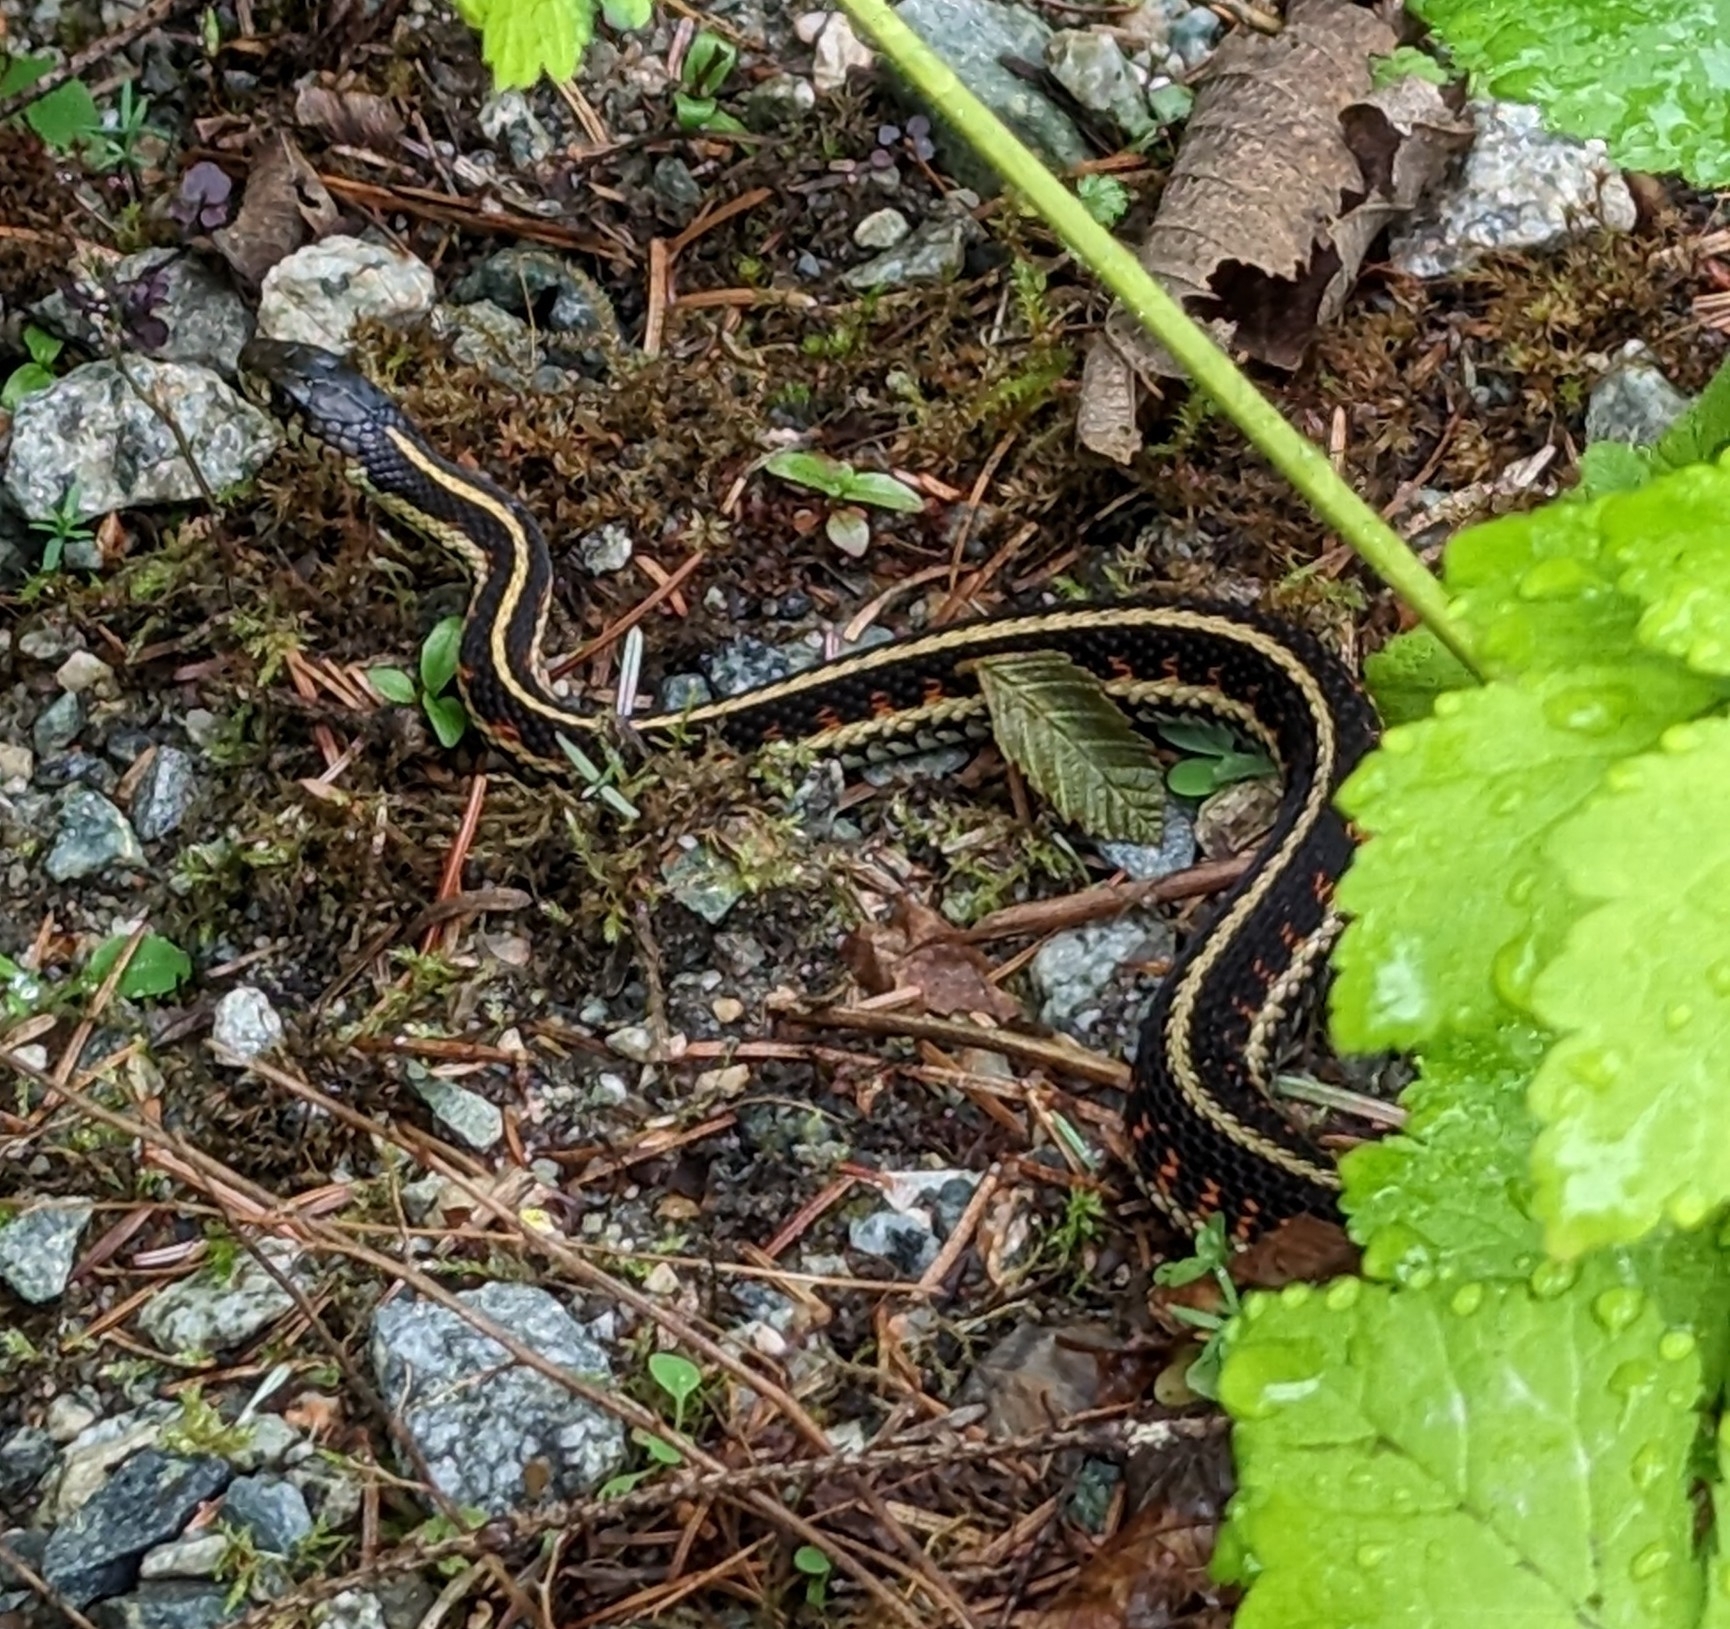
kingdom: Animalia
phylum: Chordata
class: Squamata
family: Colubridae
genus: Thamnophis
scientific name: Thamnophis sirtalis
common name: Common garter snake
